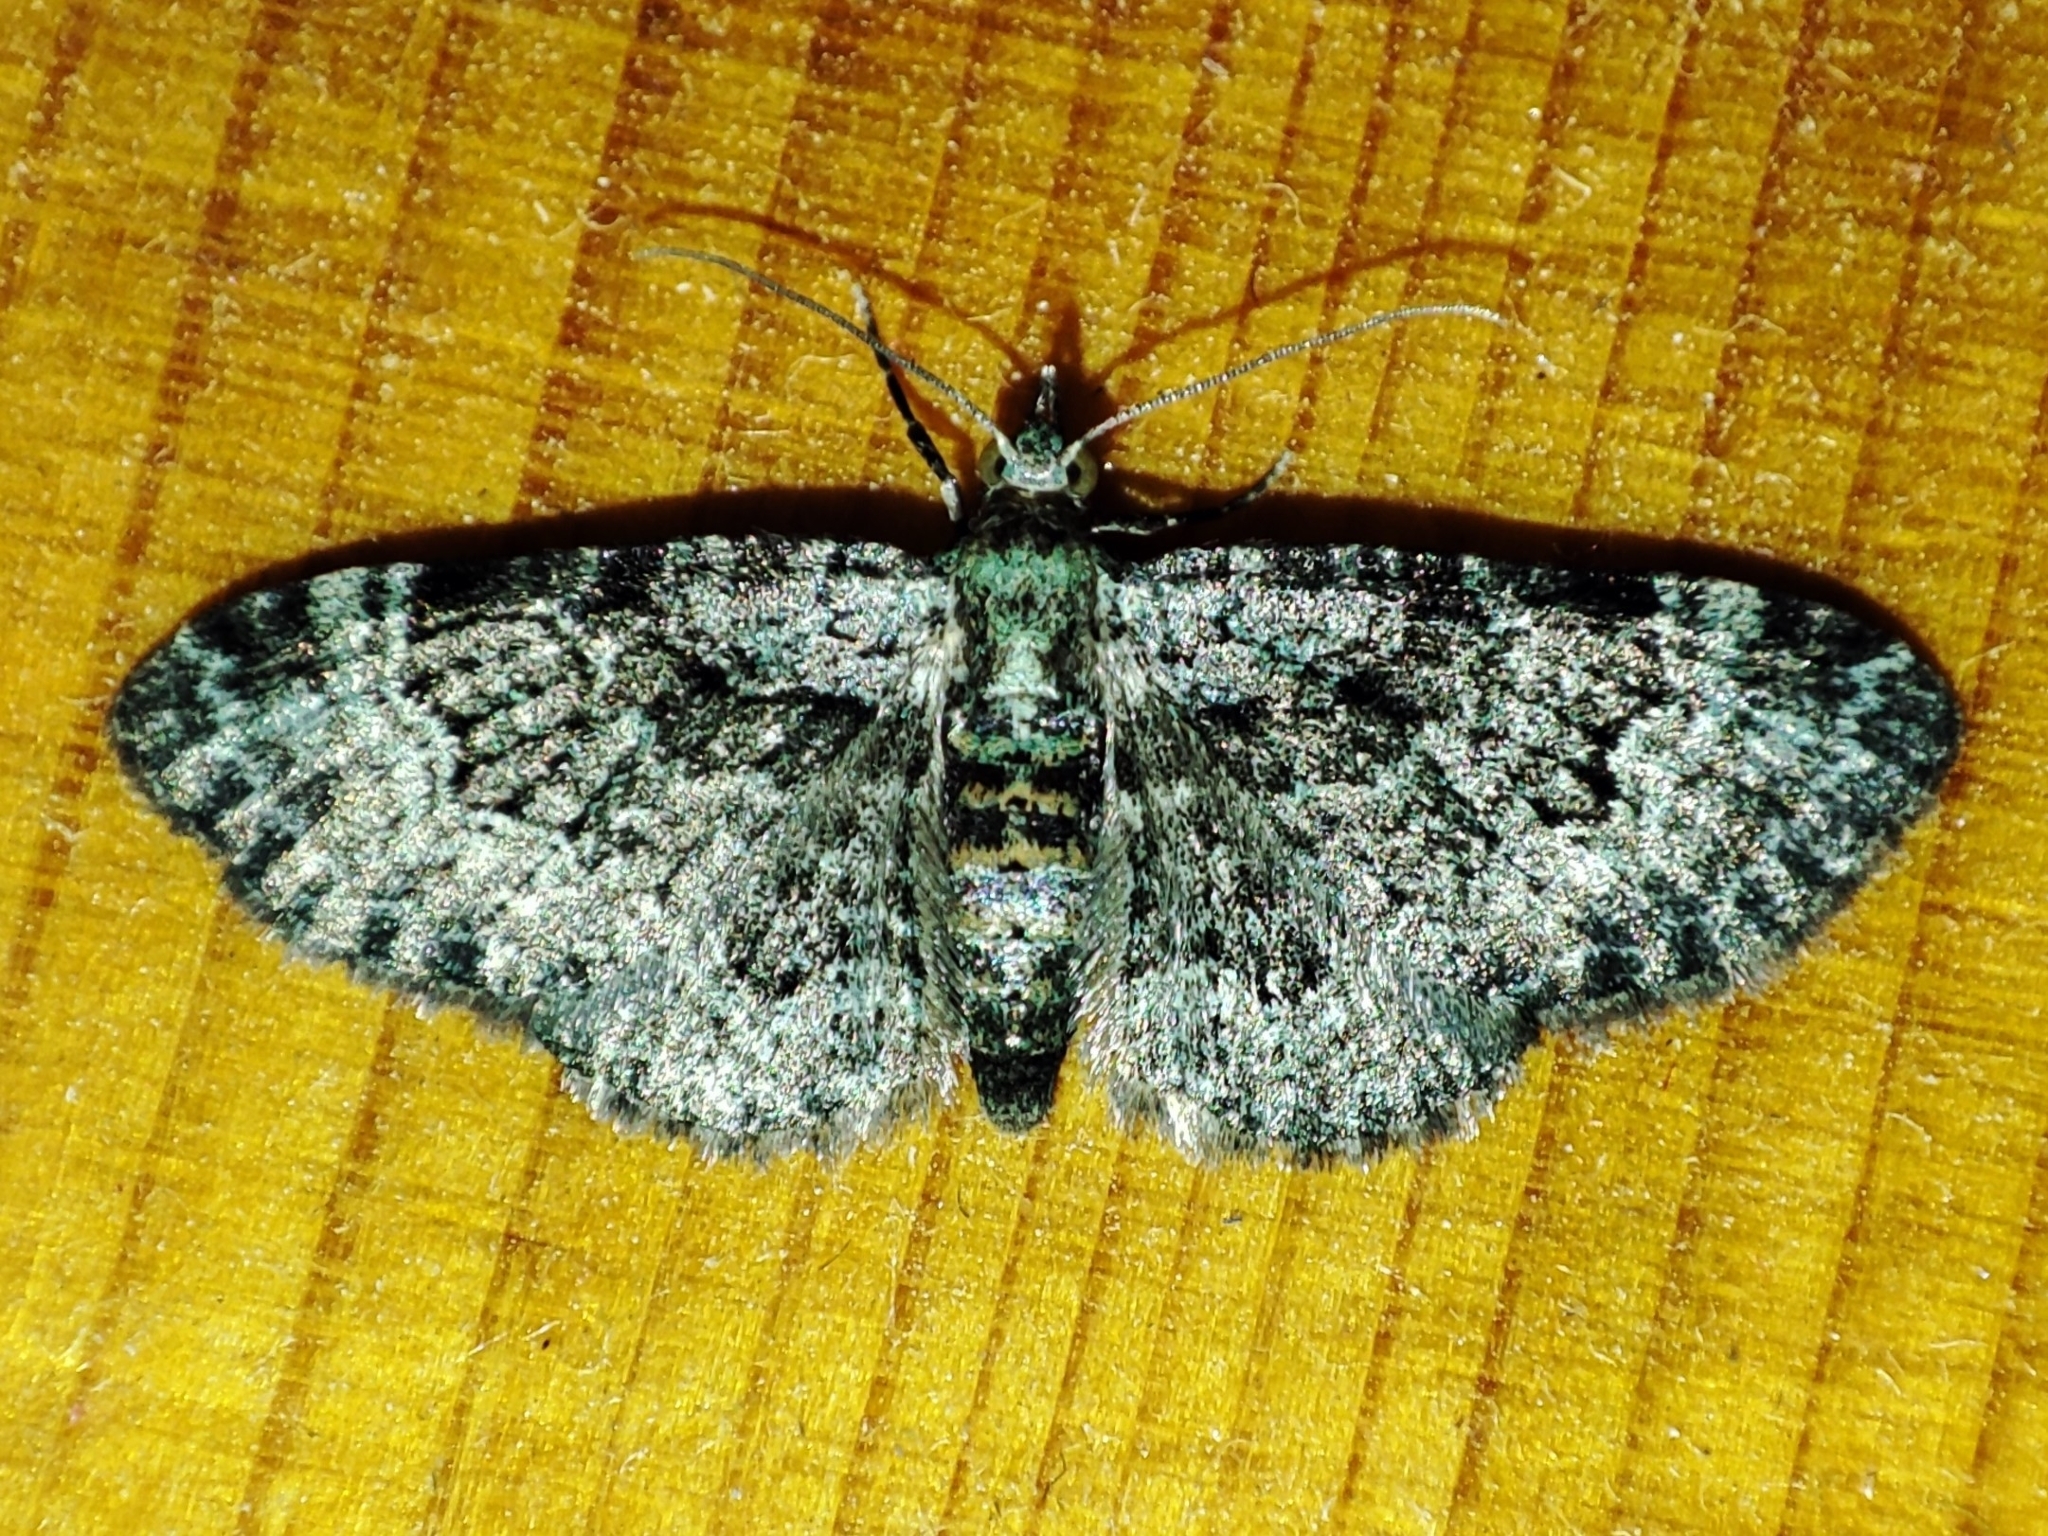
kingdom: Animalia
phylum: Arthropoda
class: Insecta
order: Lepidoptera
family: Geometridae
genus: Pasiphila
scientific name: Pasiphila rectangulata
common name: Green pug
